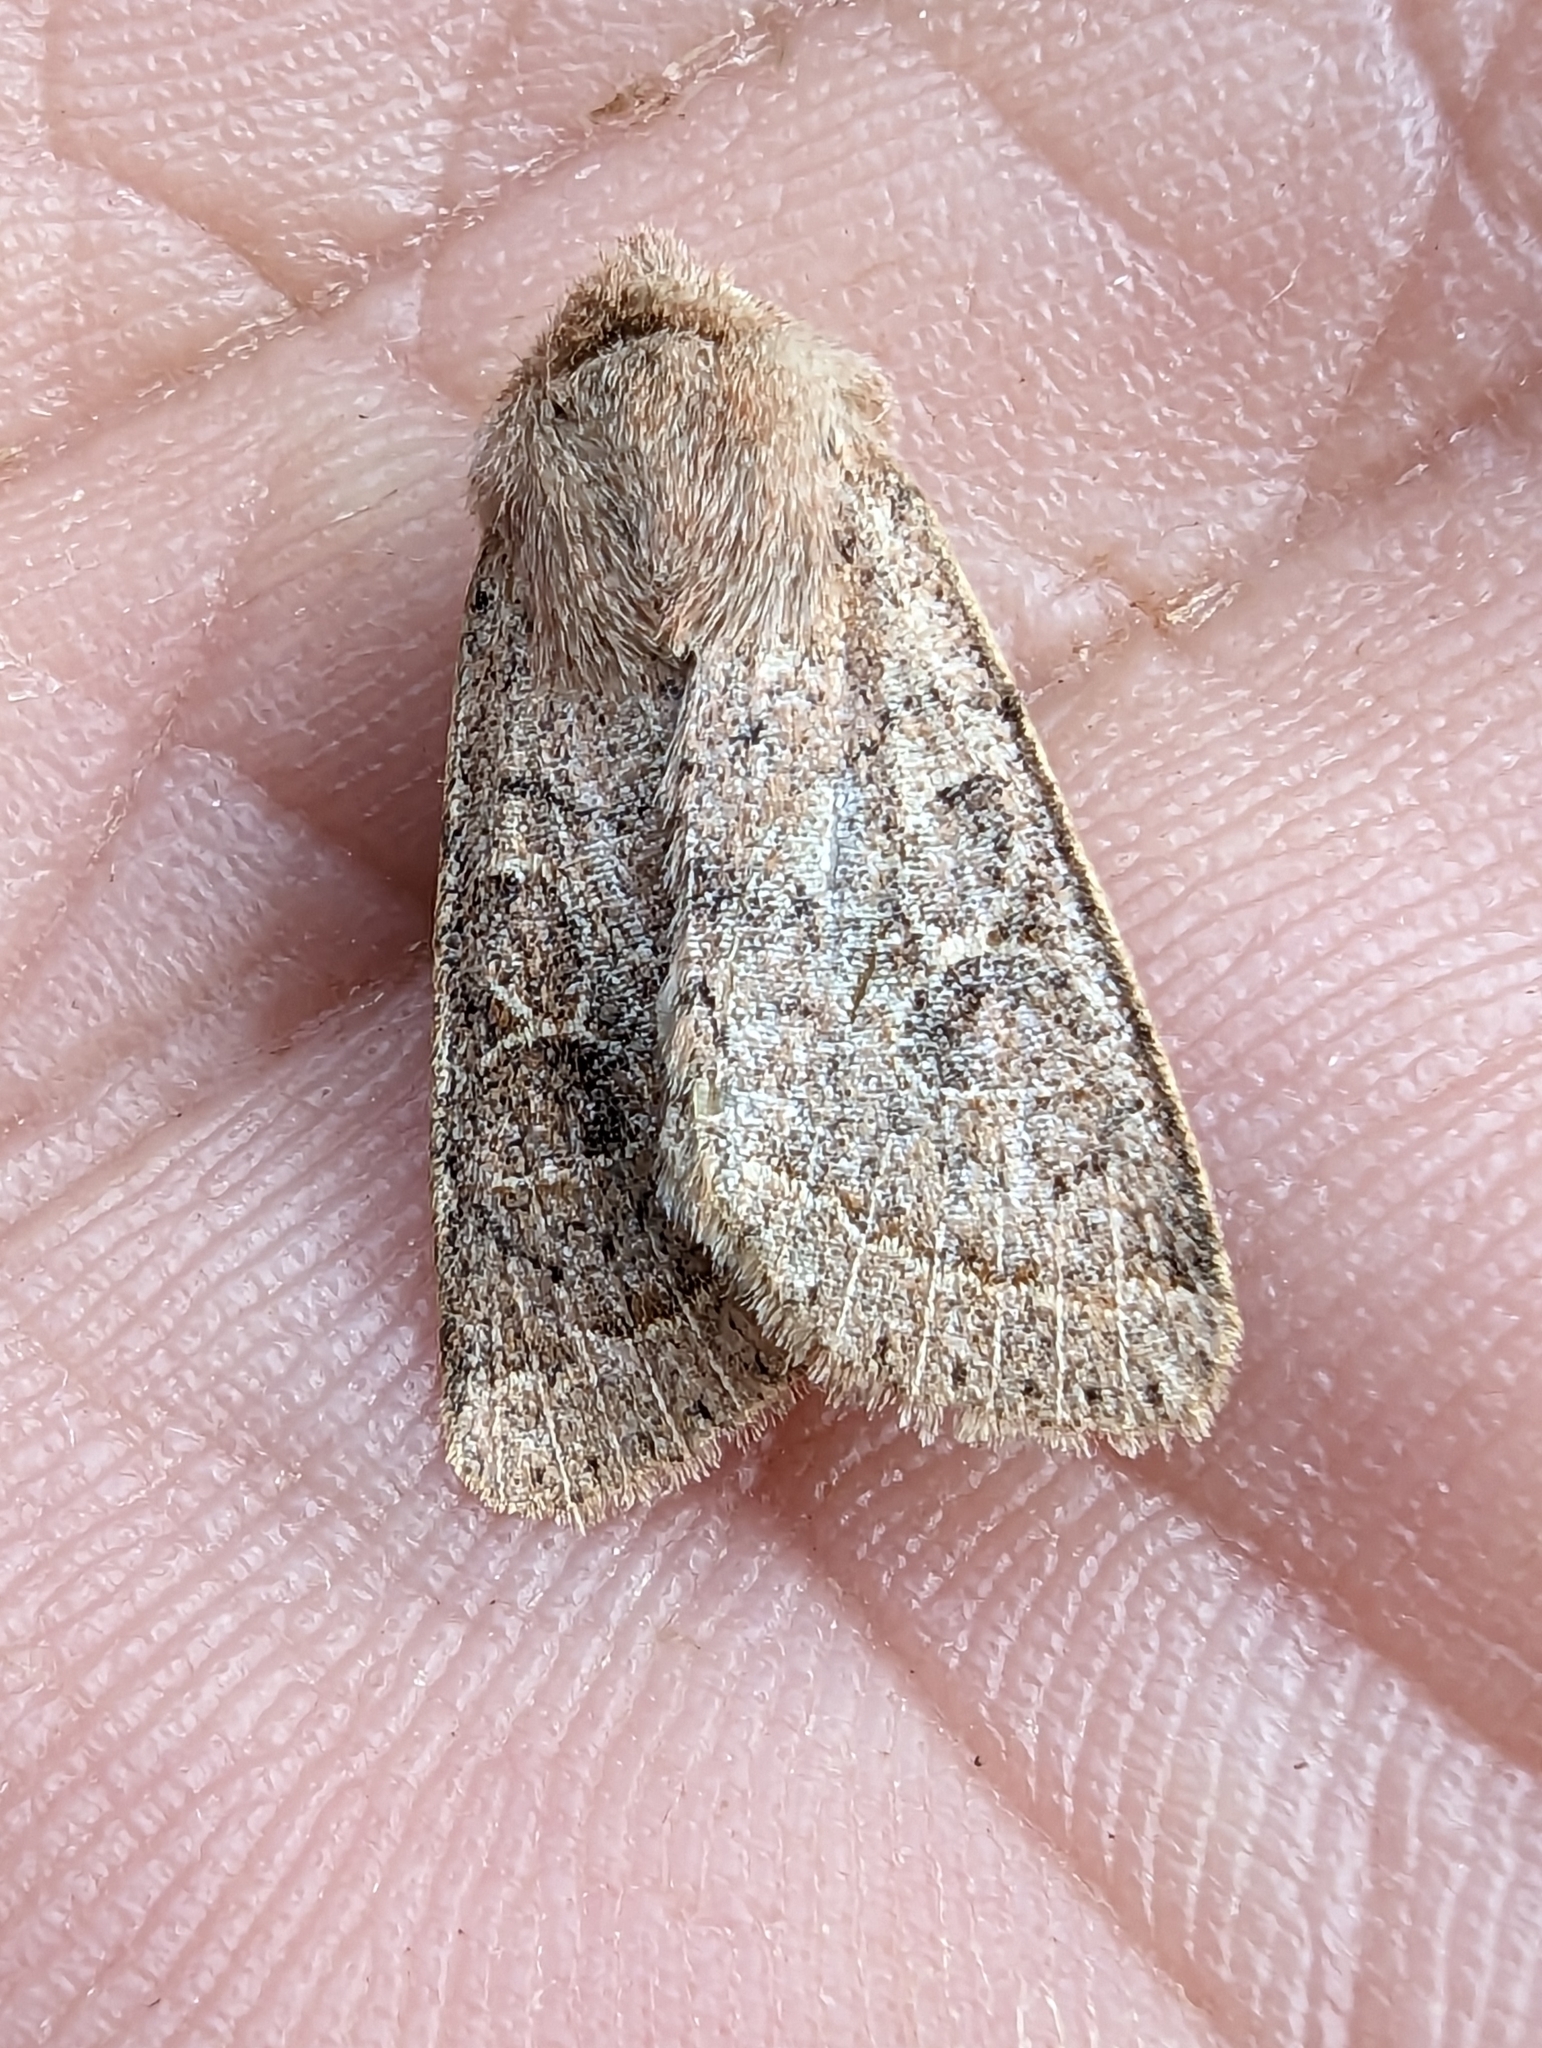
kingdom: Animalia
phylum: Arthropoda
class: Insecta
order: Lepidoptera
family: Noctuidae
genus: Orthosia
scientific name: Orthosia cerasi
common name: Common quaker
